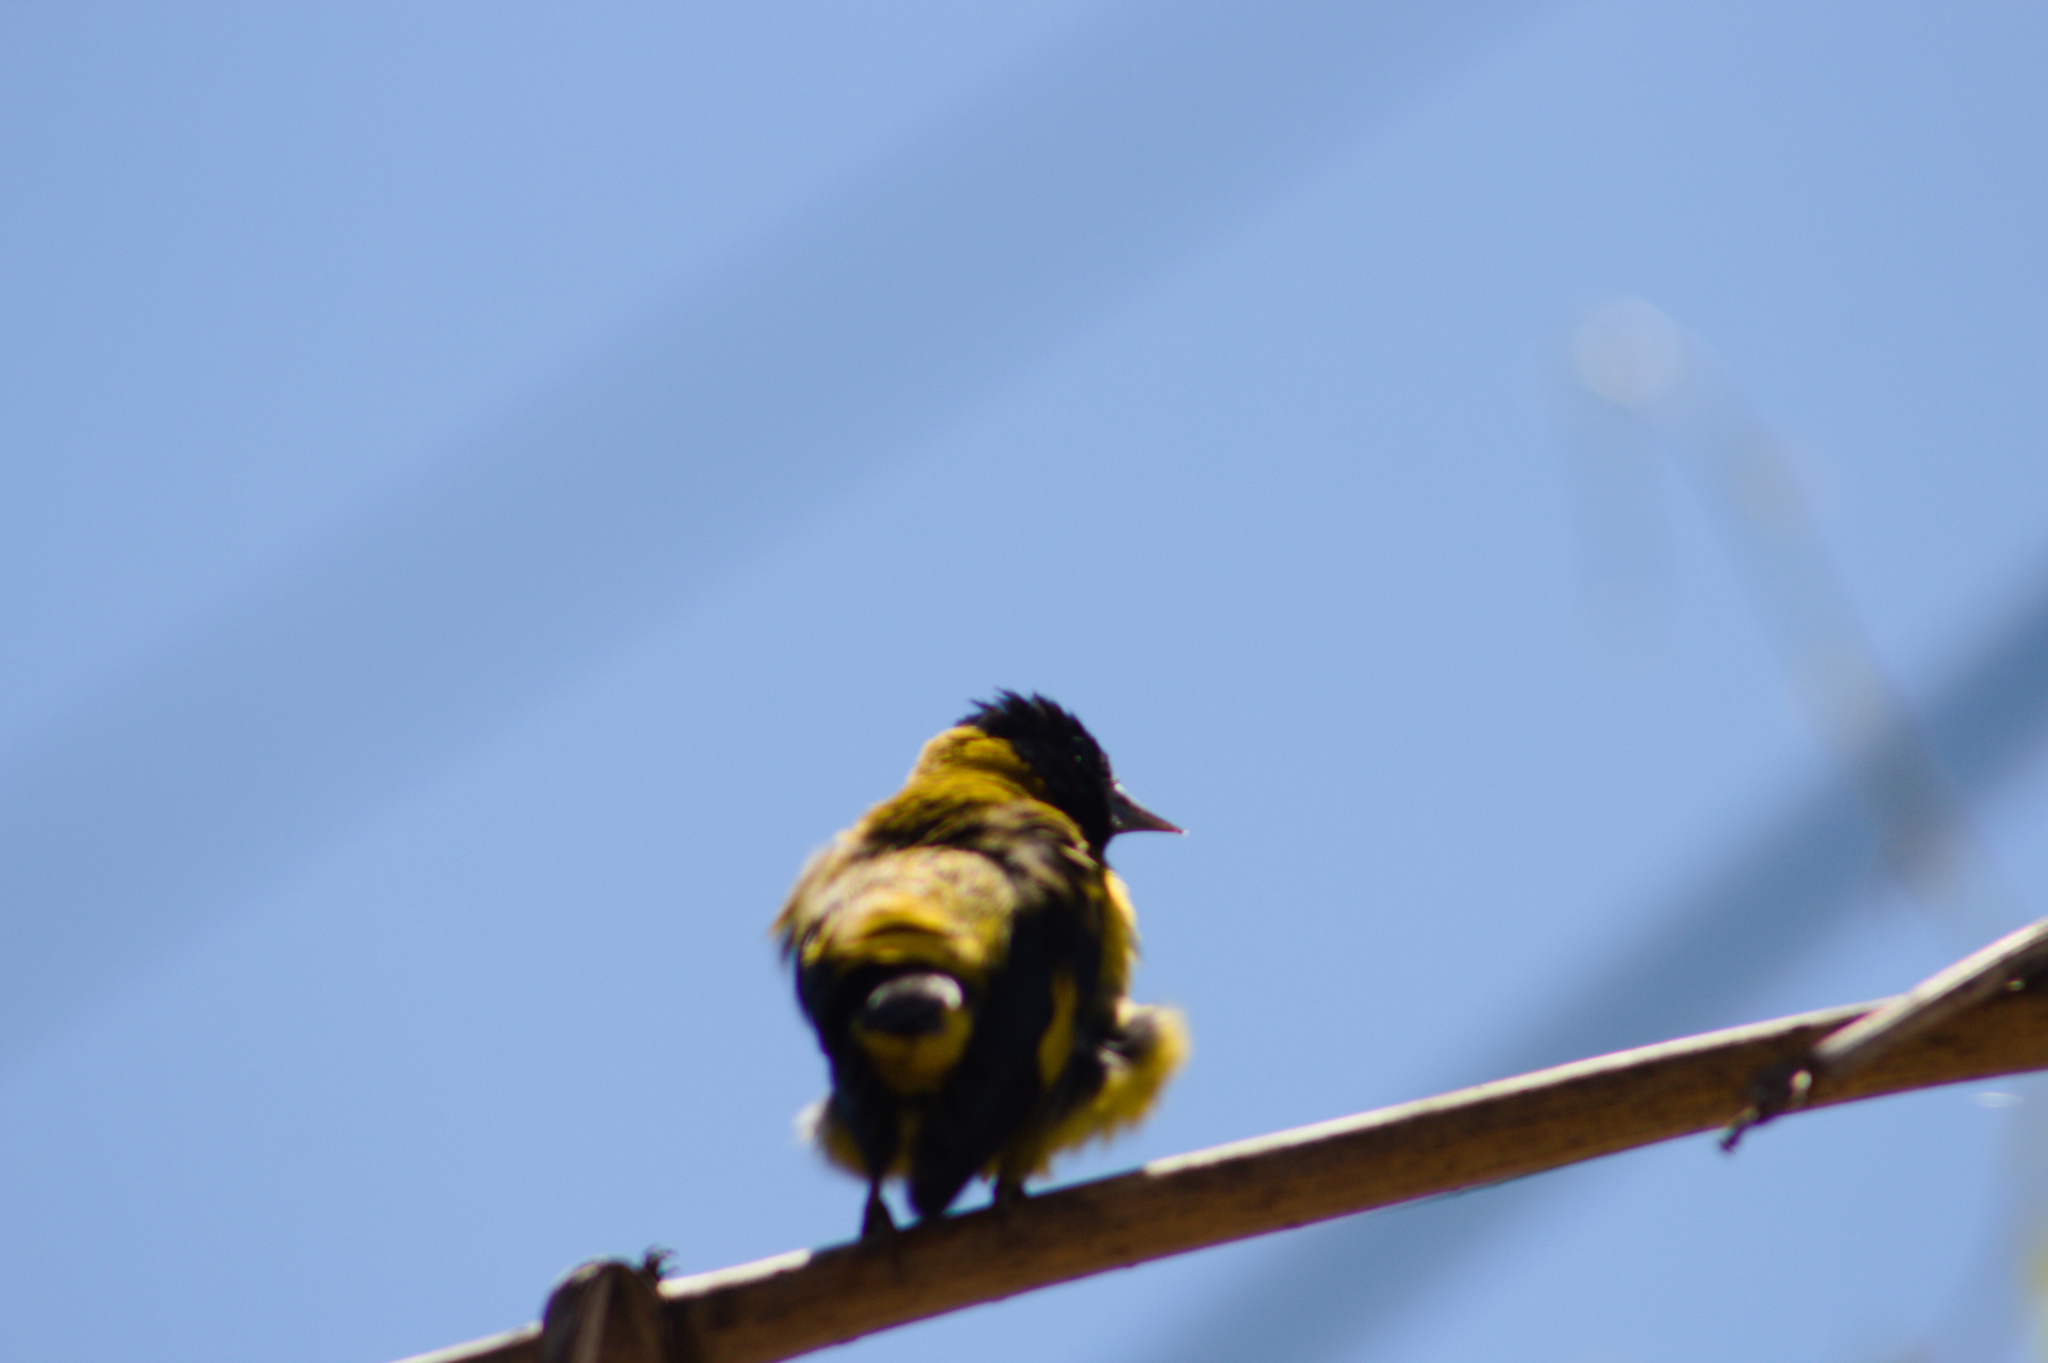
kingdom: Animalia
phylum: Chordata
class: Aves
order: Passeriformes
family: Fringillidae
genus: Spinus
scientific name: Spinus notatus
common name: Black-headed siskin
